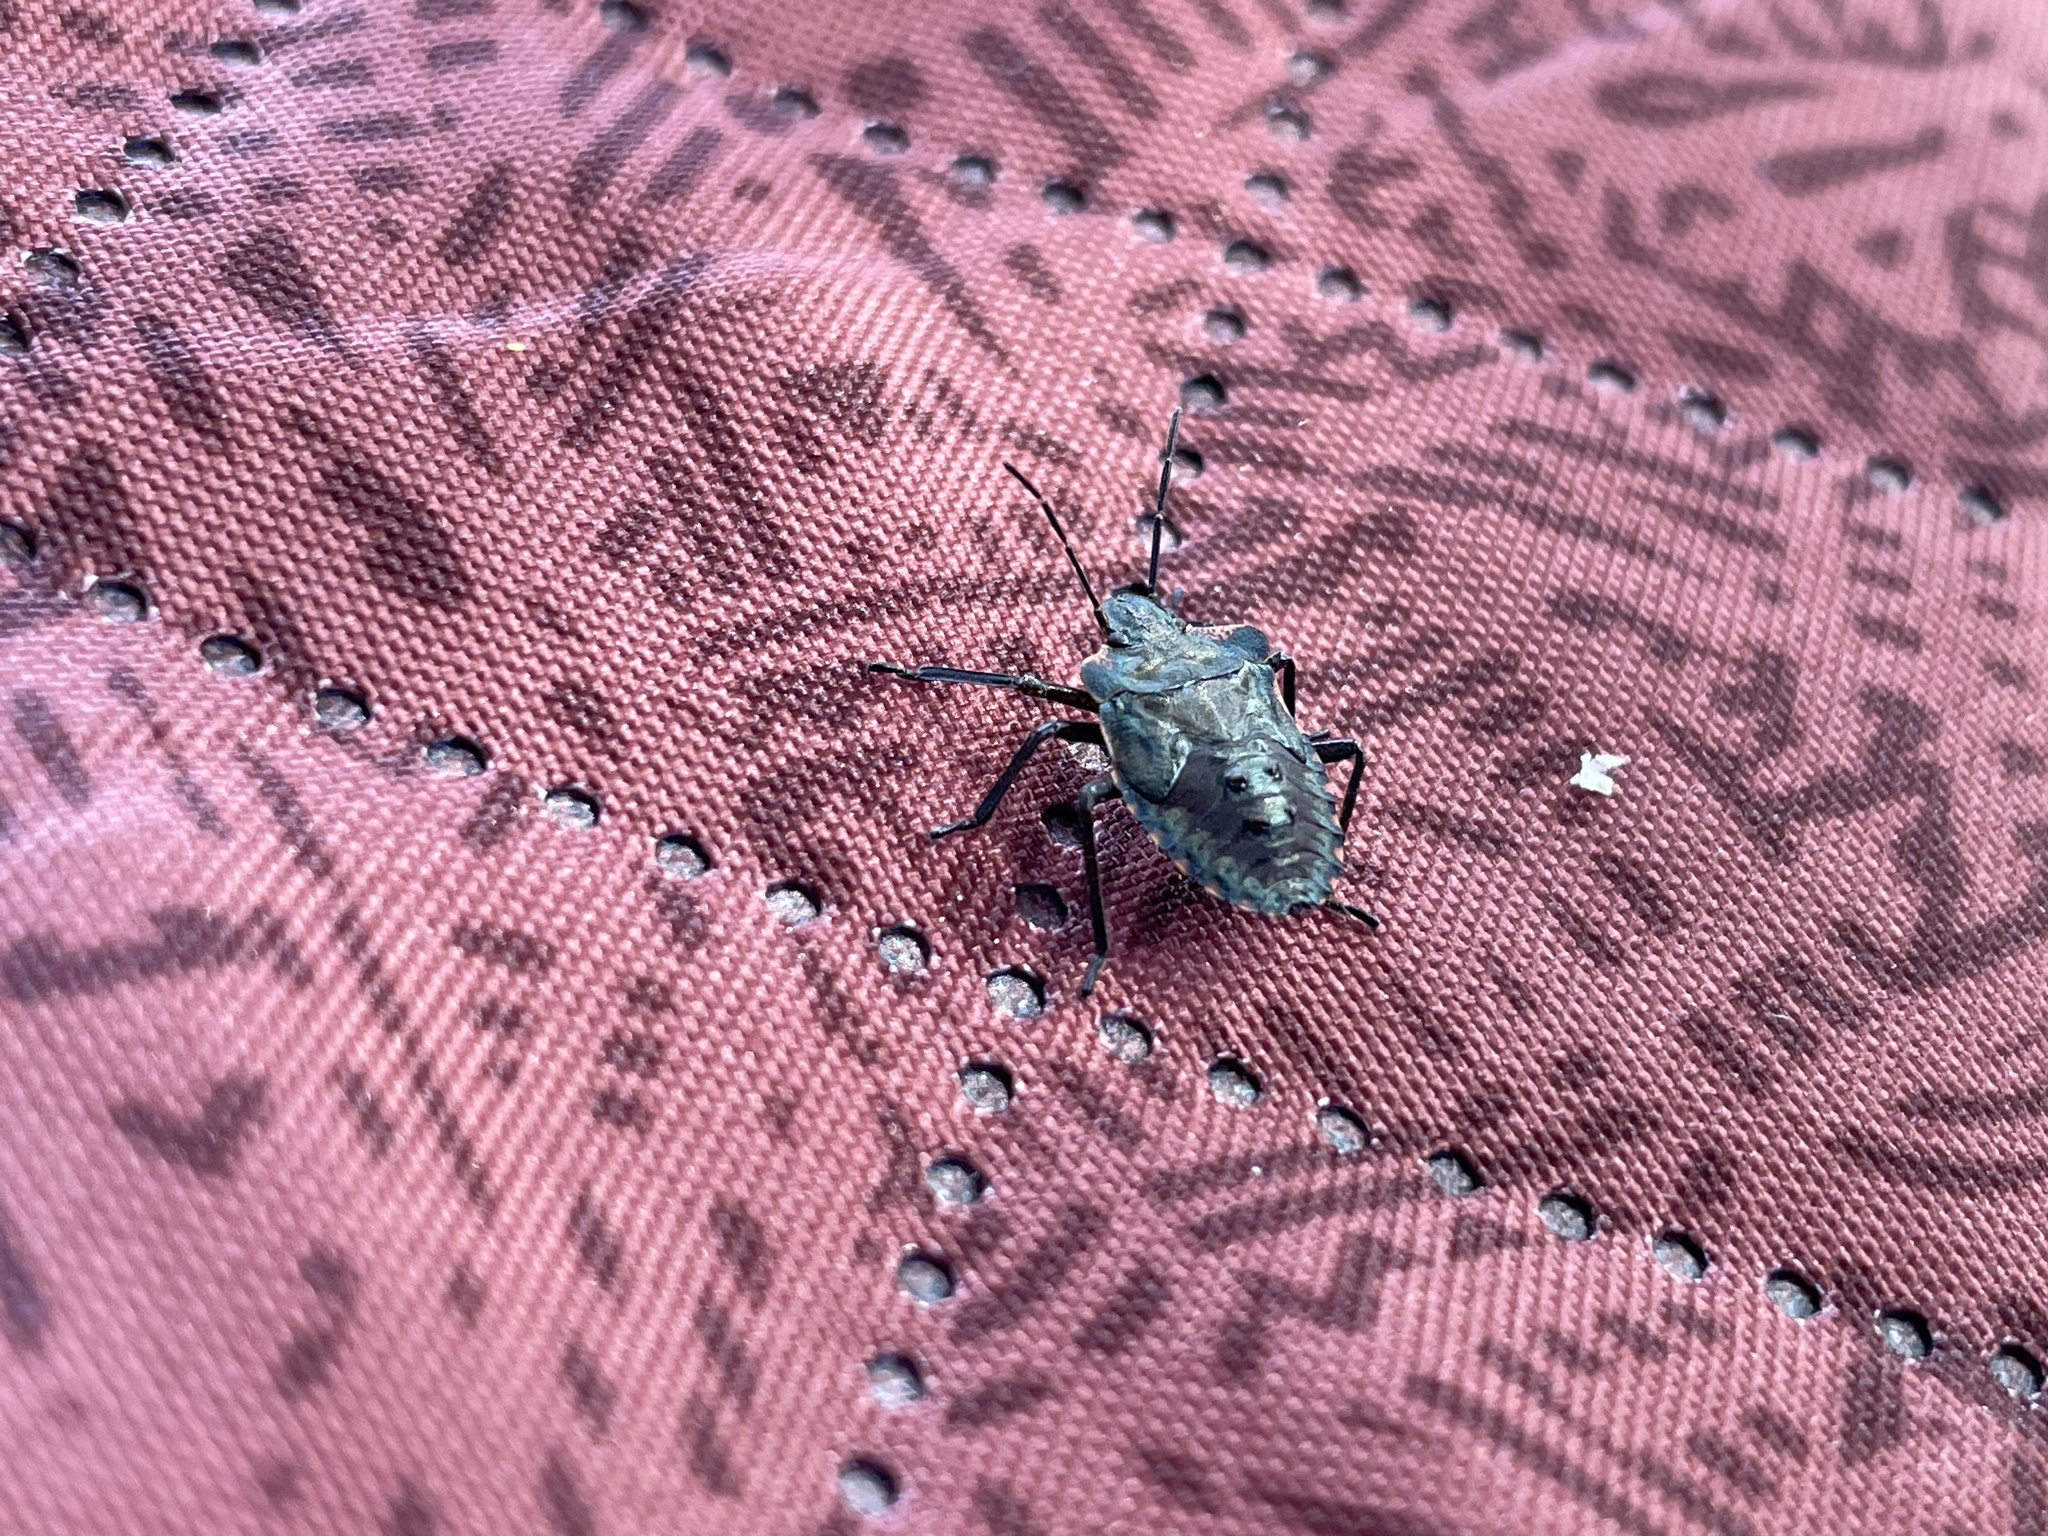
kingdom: Animalia
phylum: Arthropoda
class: Insecta
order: Hemiptera
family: Pentatomidae
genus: Pentatoma
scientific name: Pentatoma rufipes
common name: Forest bug
